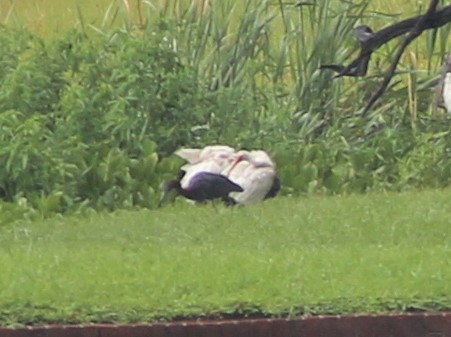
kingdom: Animalia
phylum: Chordata
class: Aves
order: Pelecaniformes
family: Ardeidae
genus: Egretta
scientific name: Egretta caerulea
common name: Little blue heron
